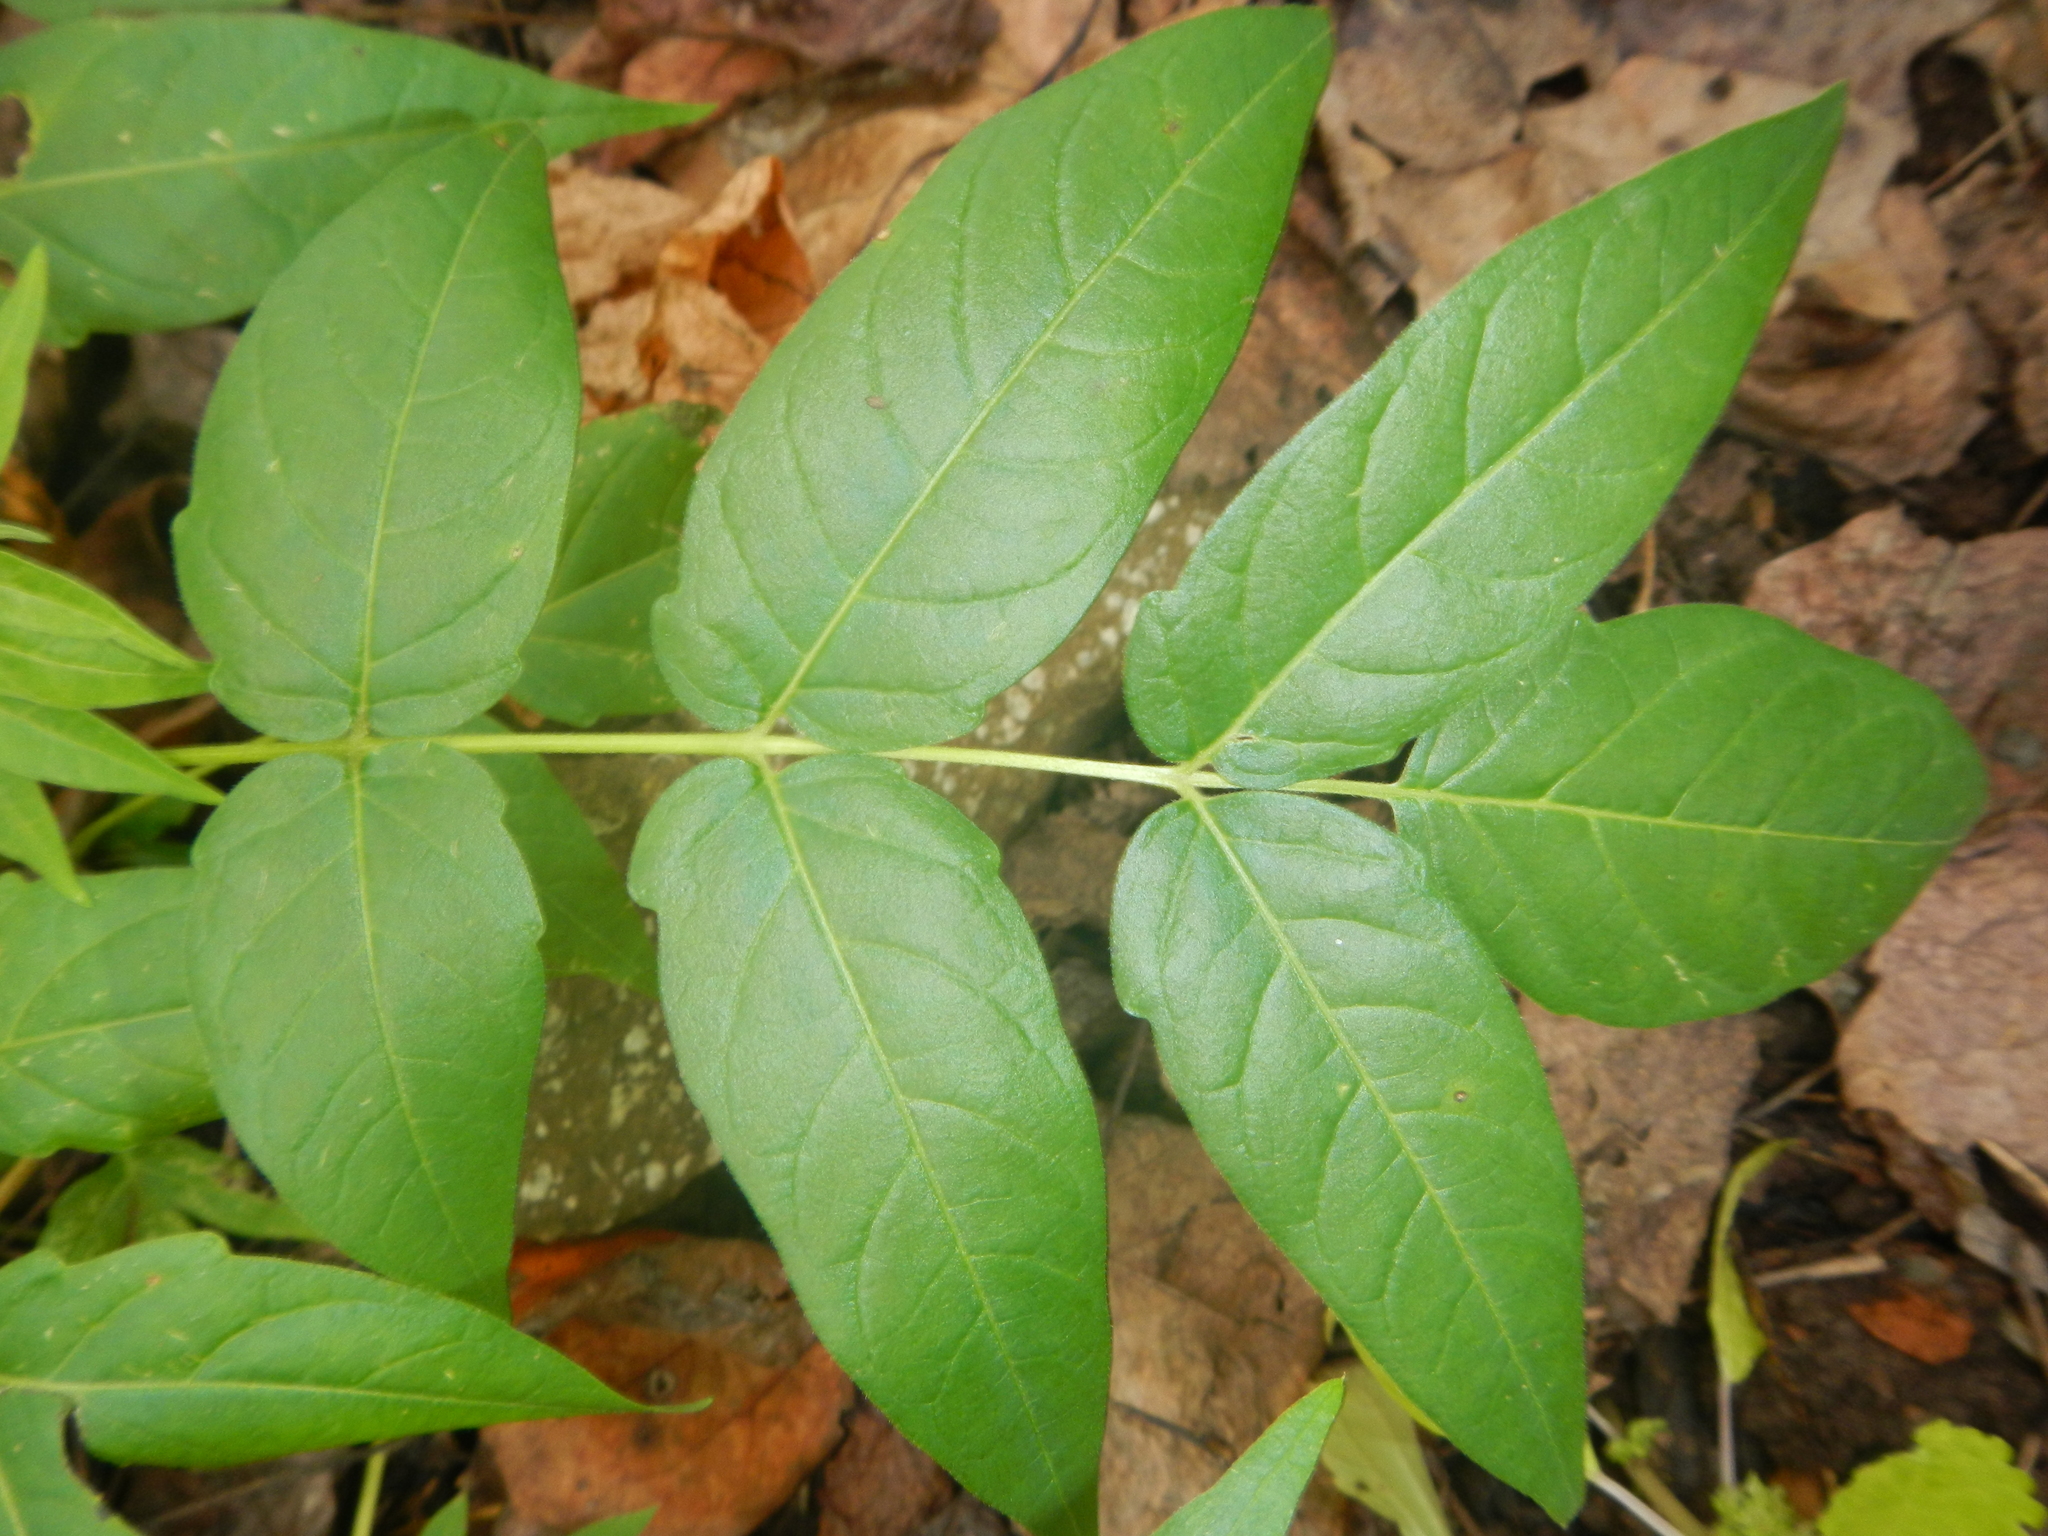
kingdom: Plantae
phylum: Tracheophyta
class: Magnoliopsida
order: Sapindales
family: Simaroubaceae
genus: Ailanthus
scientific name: Ailanthus altissima
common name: Tree-of-heaven
